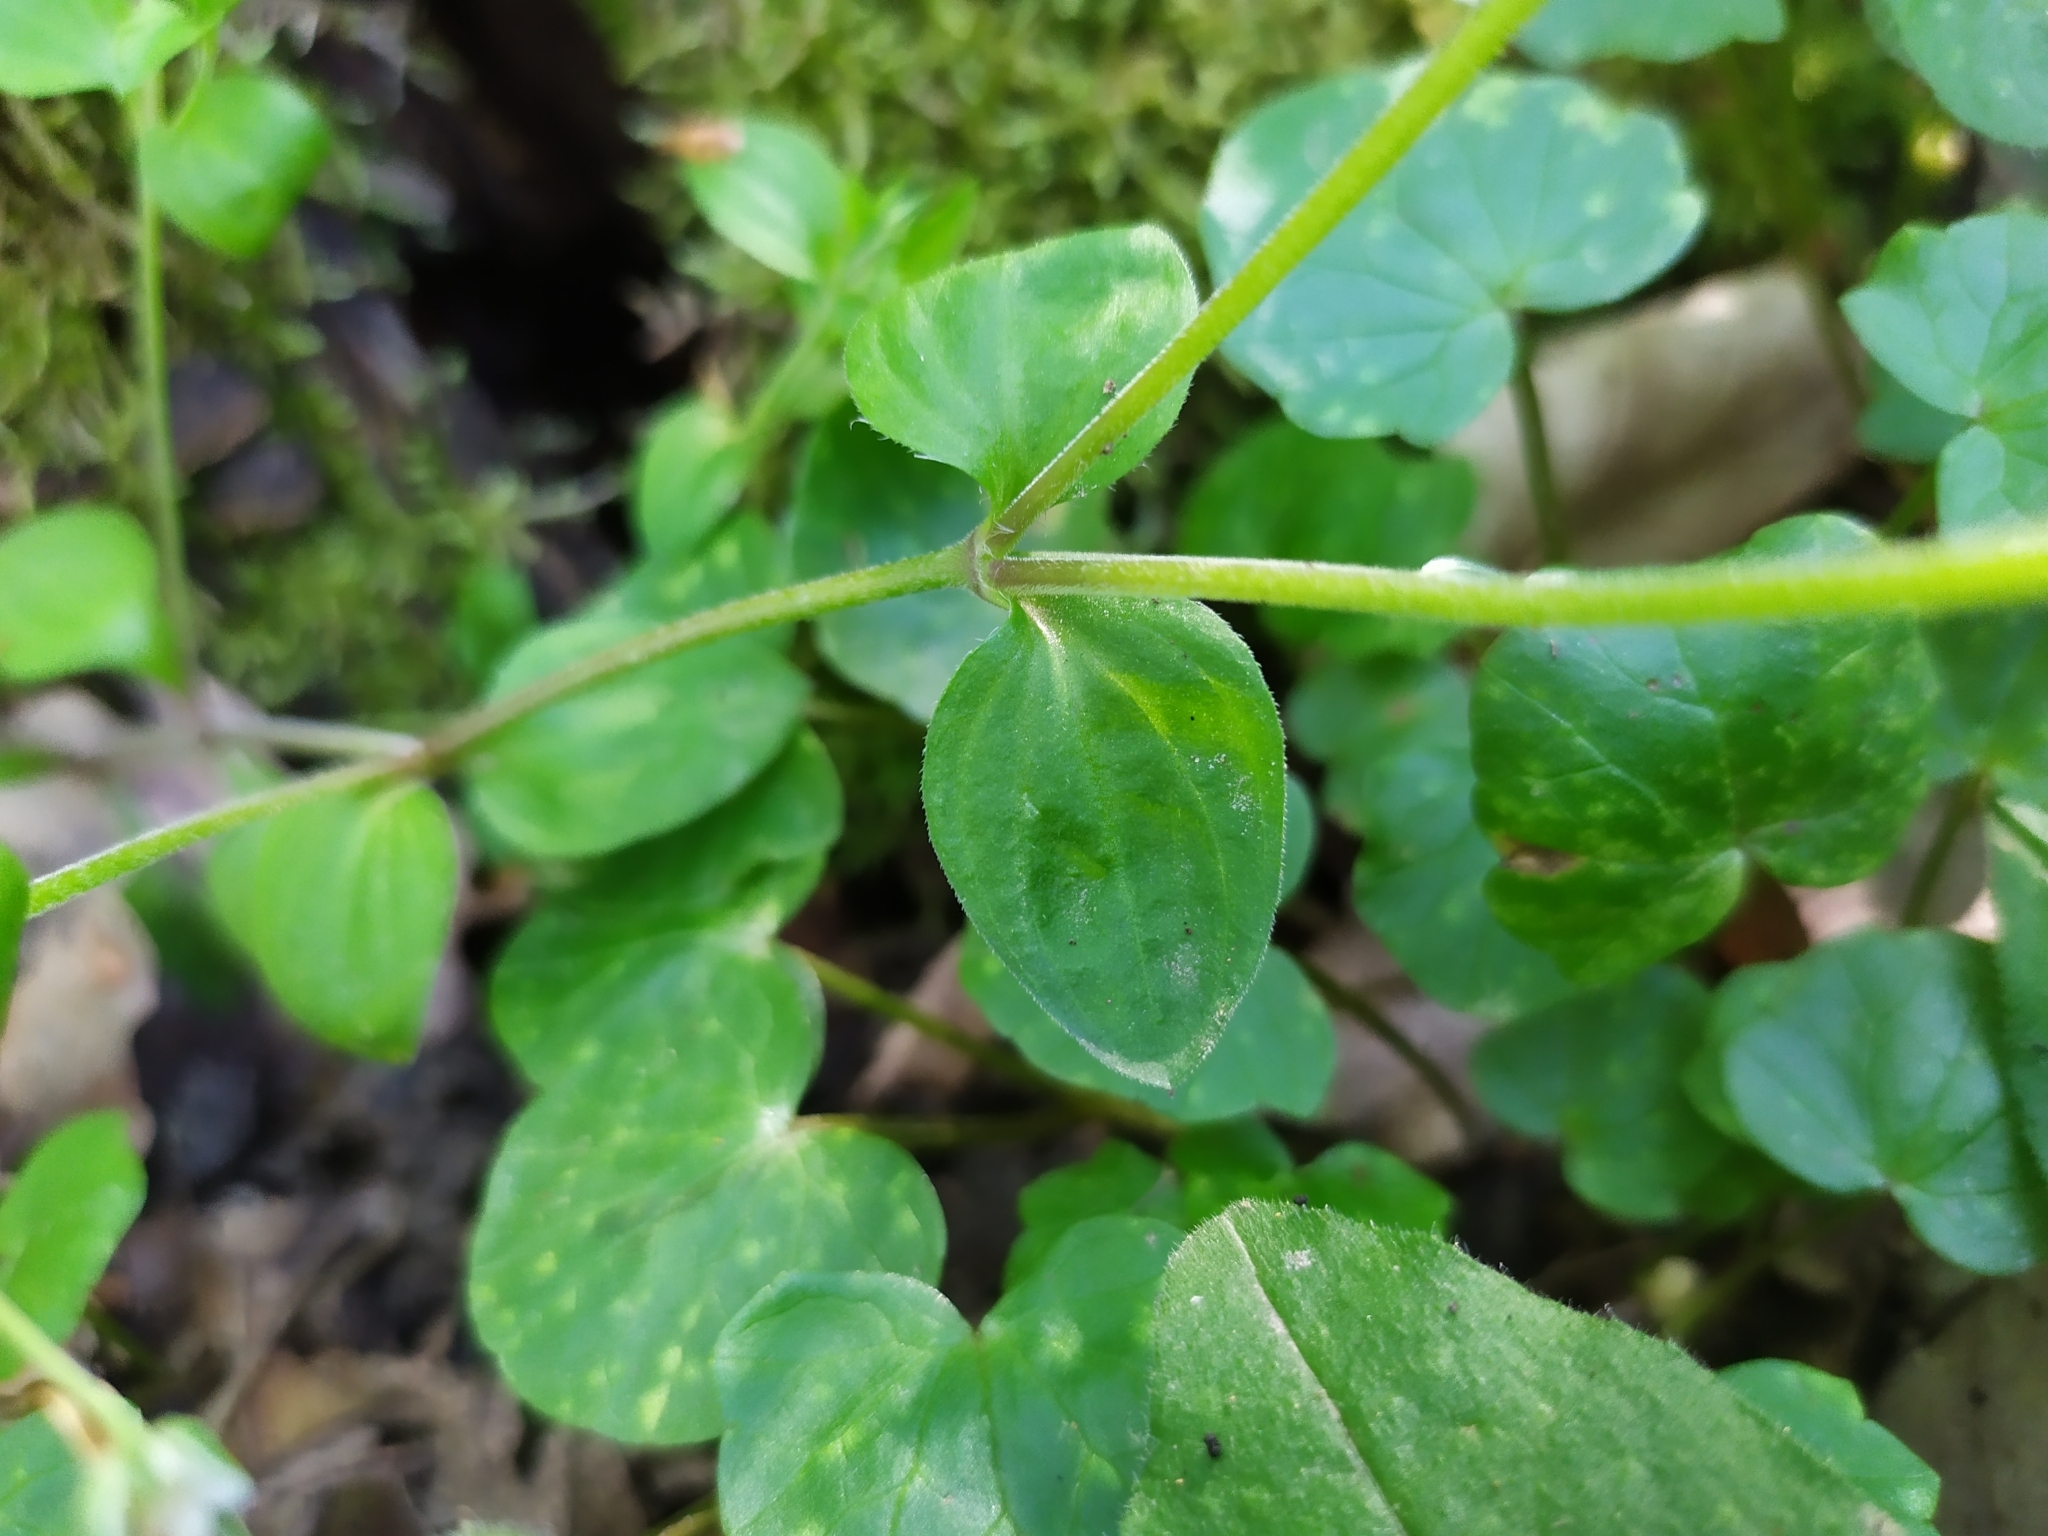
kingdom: Plantae
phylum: Tracheophyta
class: Magnoliopsida
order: Caryophyllales
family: Caryophyllaceae
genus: Moehringia
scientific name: Moehringia trinervia
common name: Three-nerved sandwort
